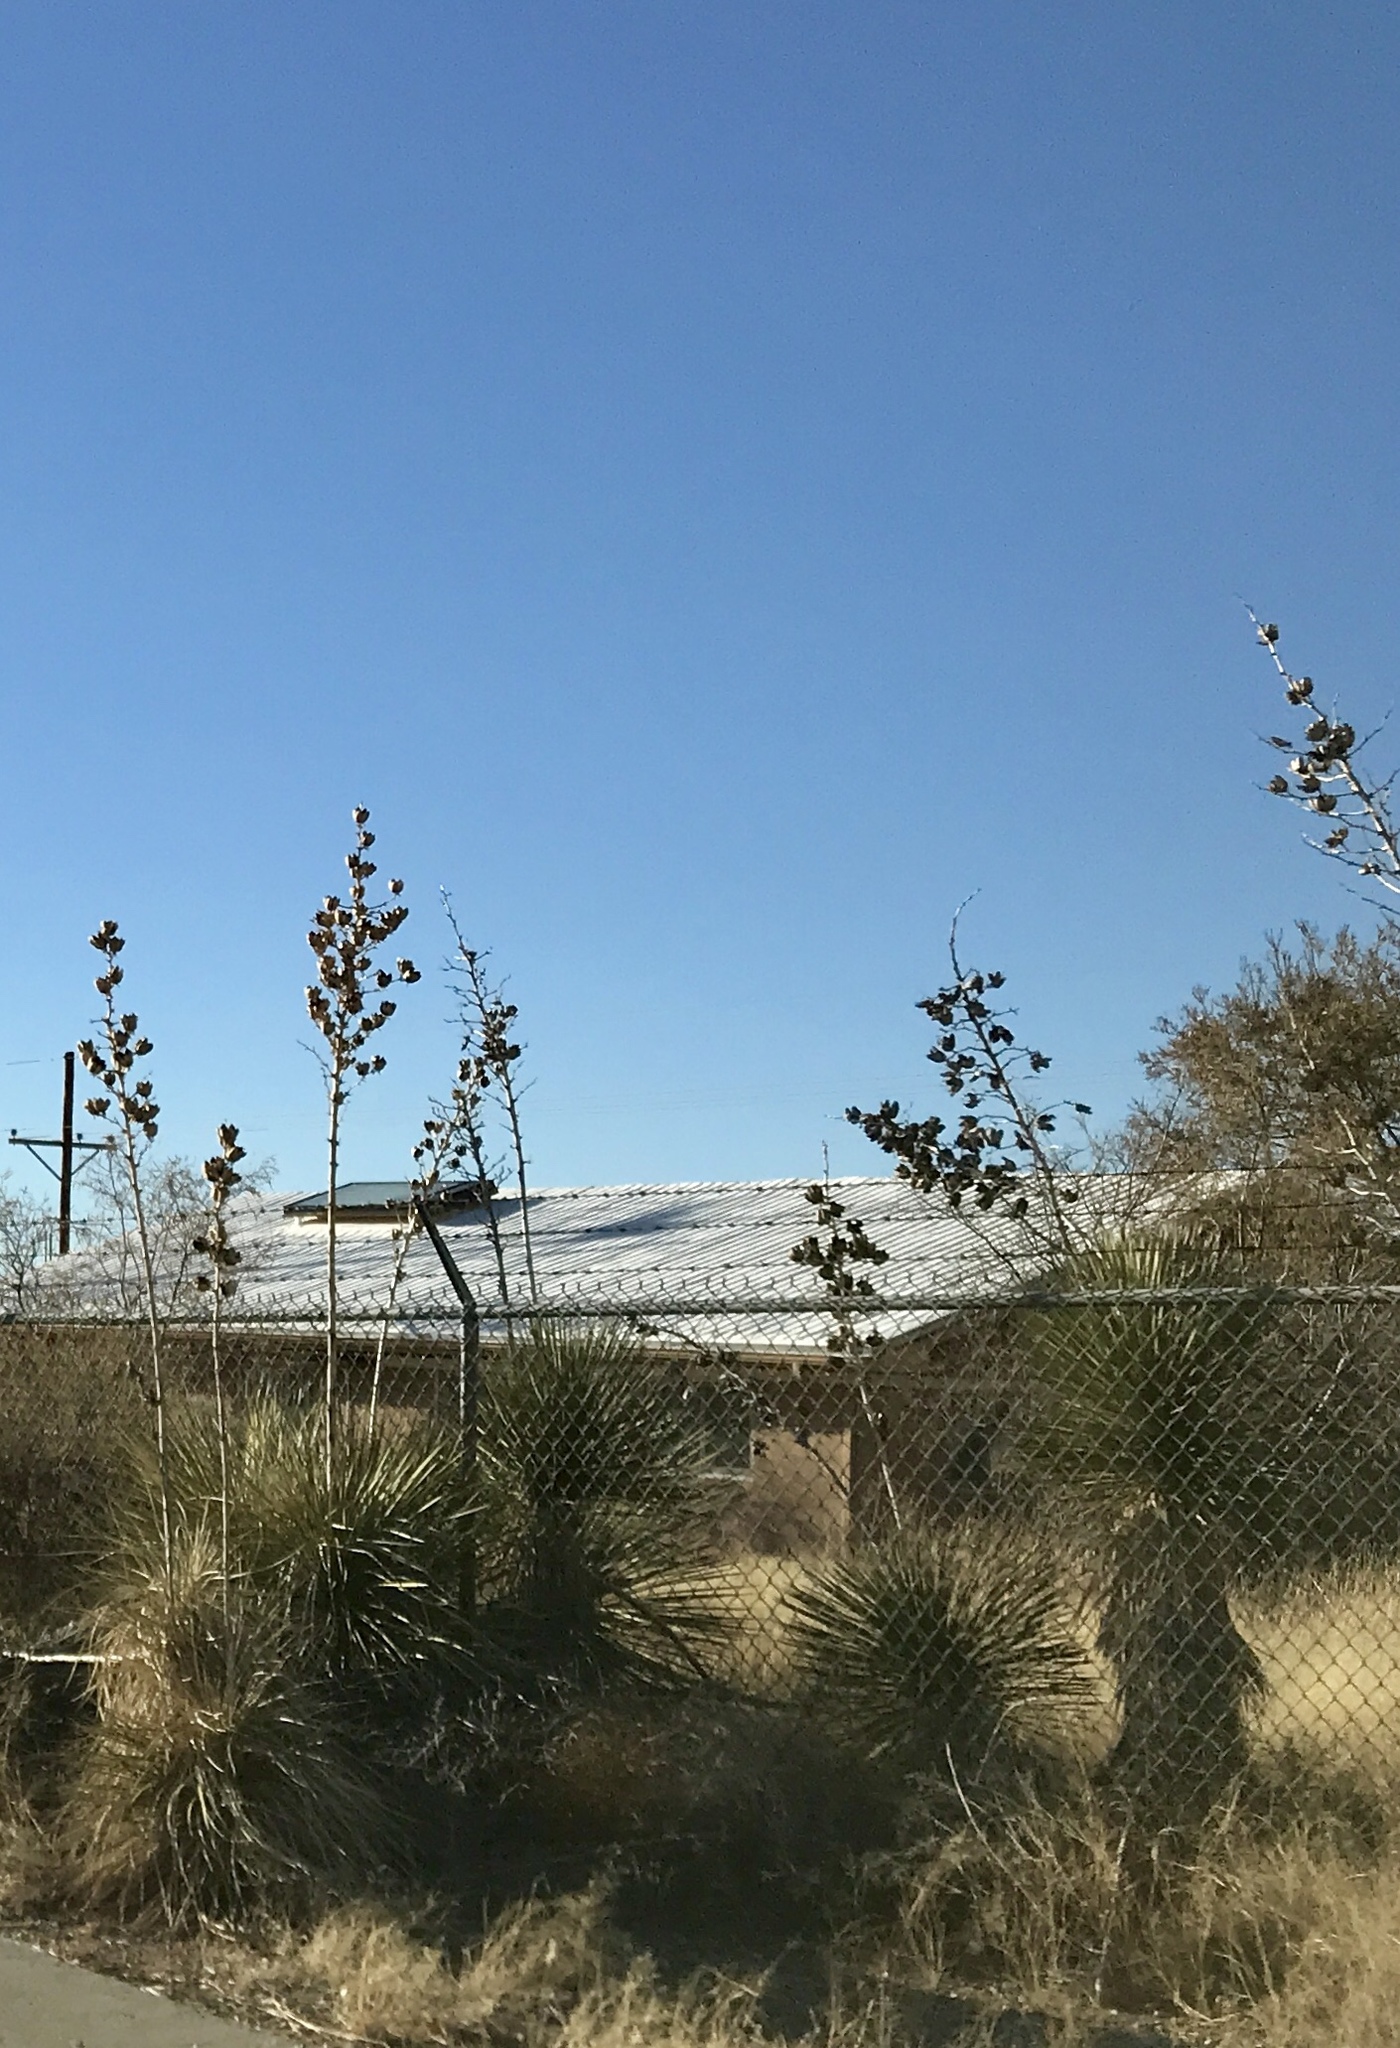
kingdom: Plantae
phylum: Tracheophyta
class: Liliopsida
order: Asparagales
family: Asparagaceae
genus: Yucca
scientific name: Yucca elata
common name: Palmella
